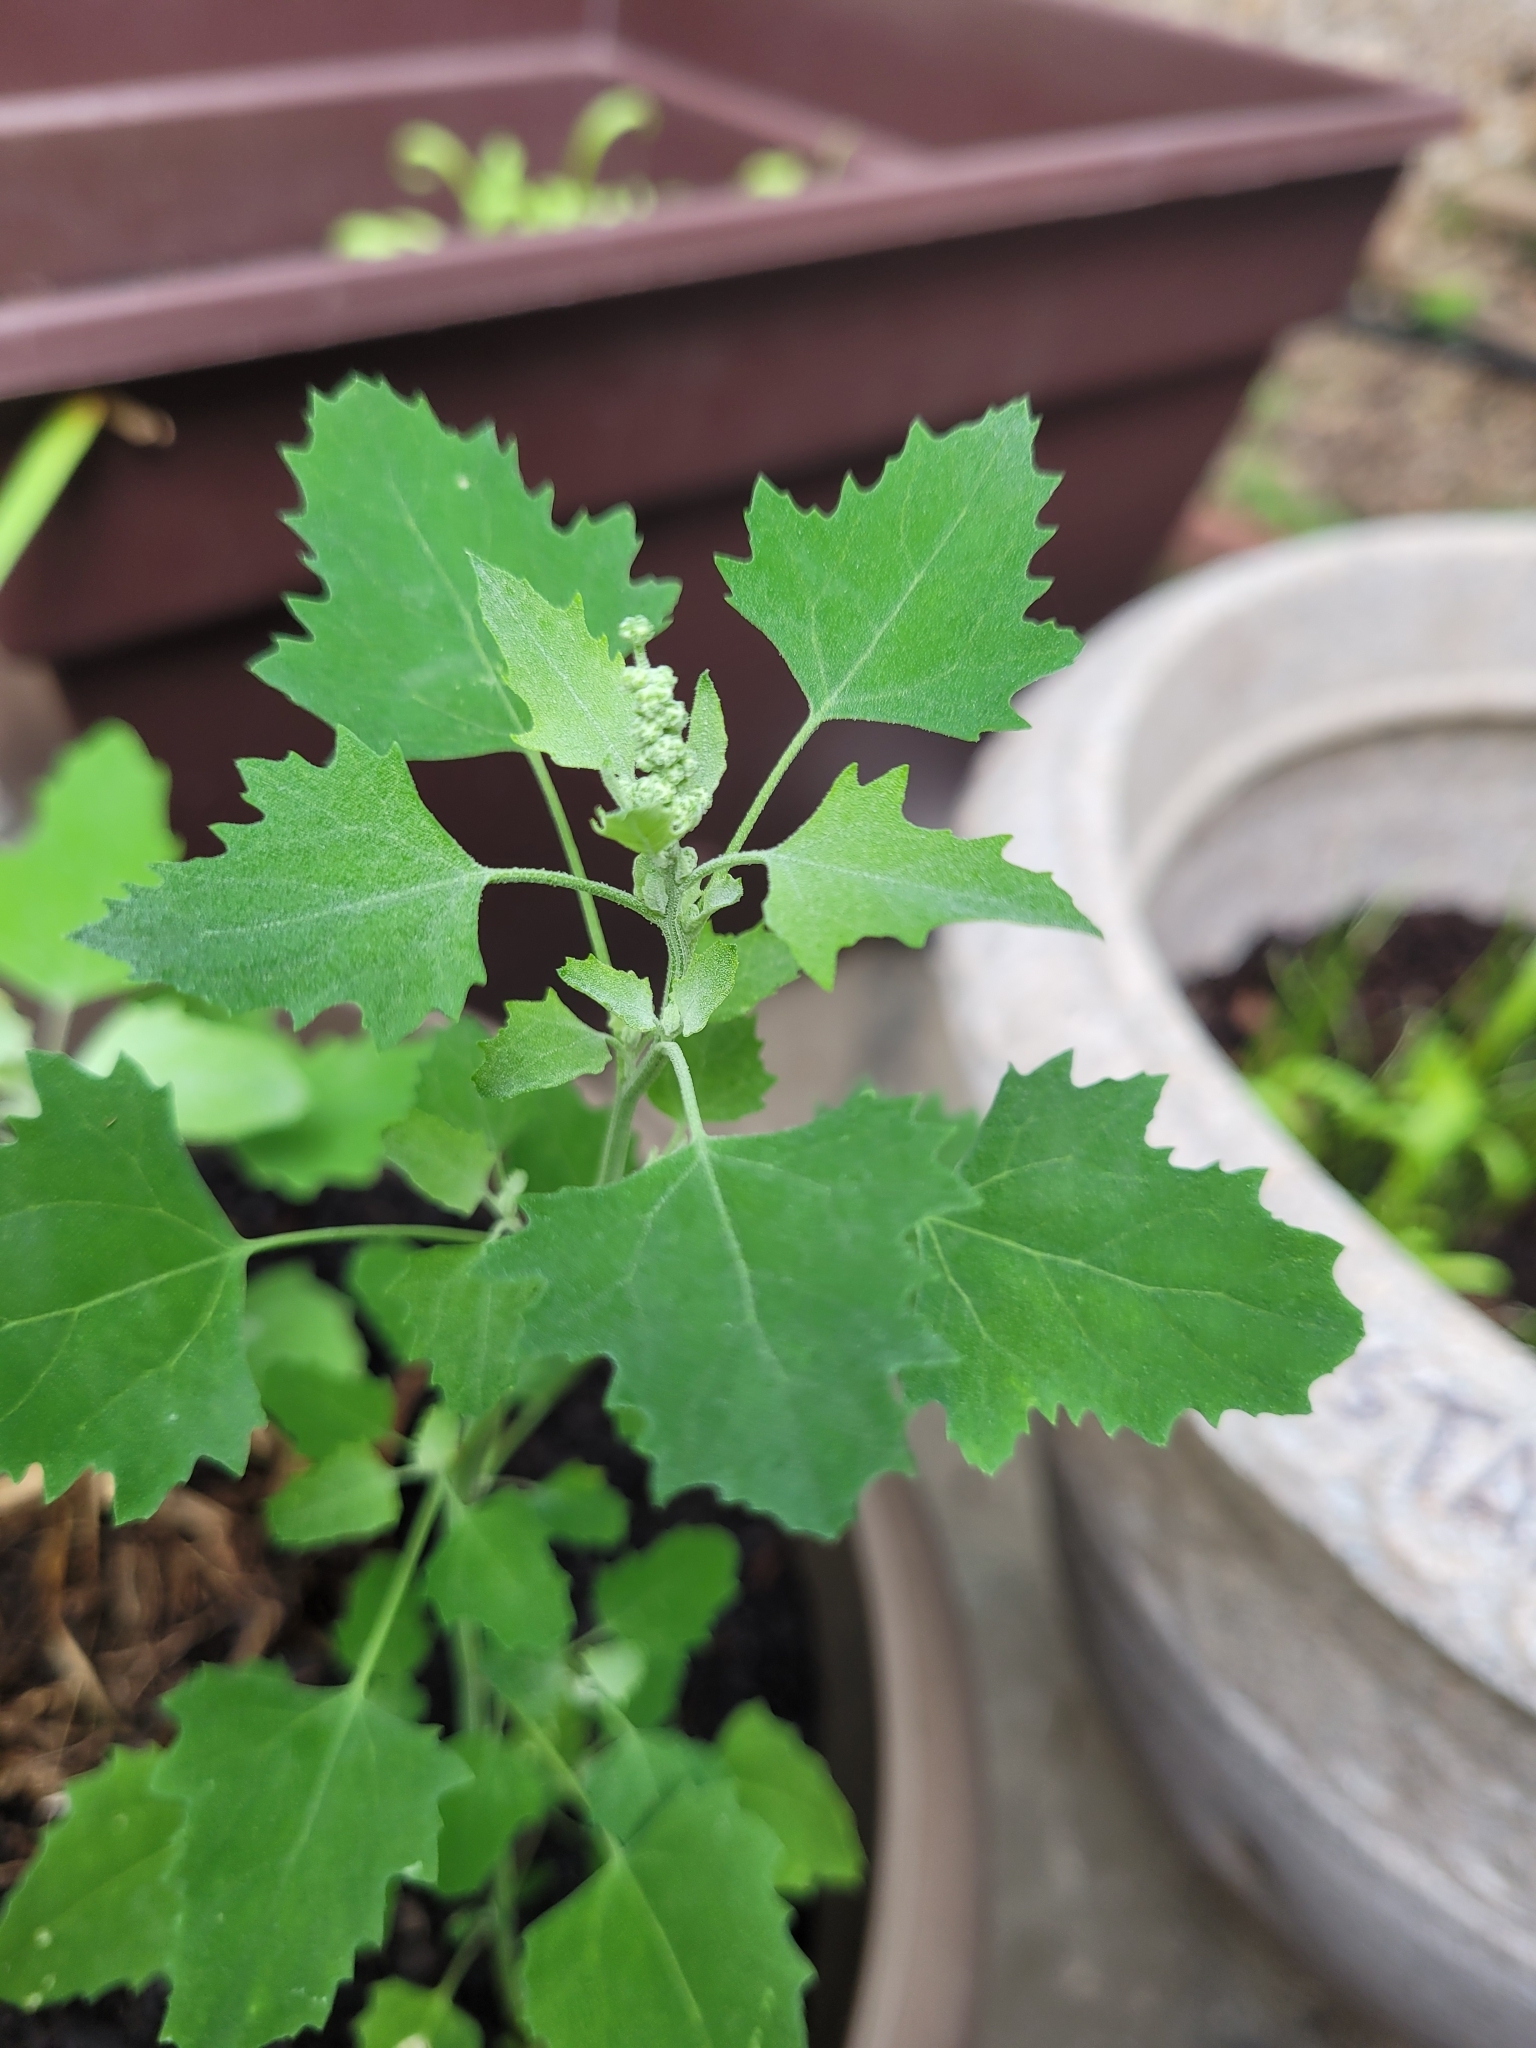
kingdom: Plantae
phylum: Tracheophyta
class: Magnoliopsida
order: Caryophyllales
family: Amaranthaceae
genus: Chenopodium
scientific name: Chenopodium album
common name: Fat-hen
